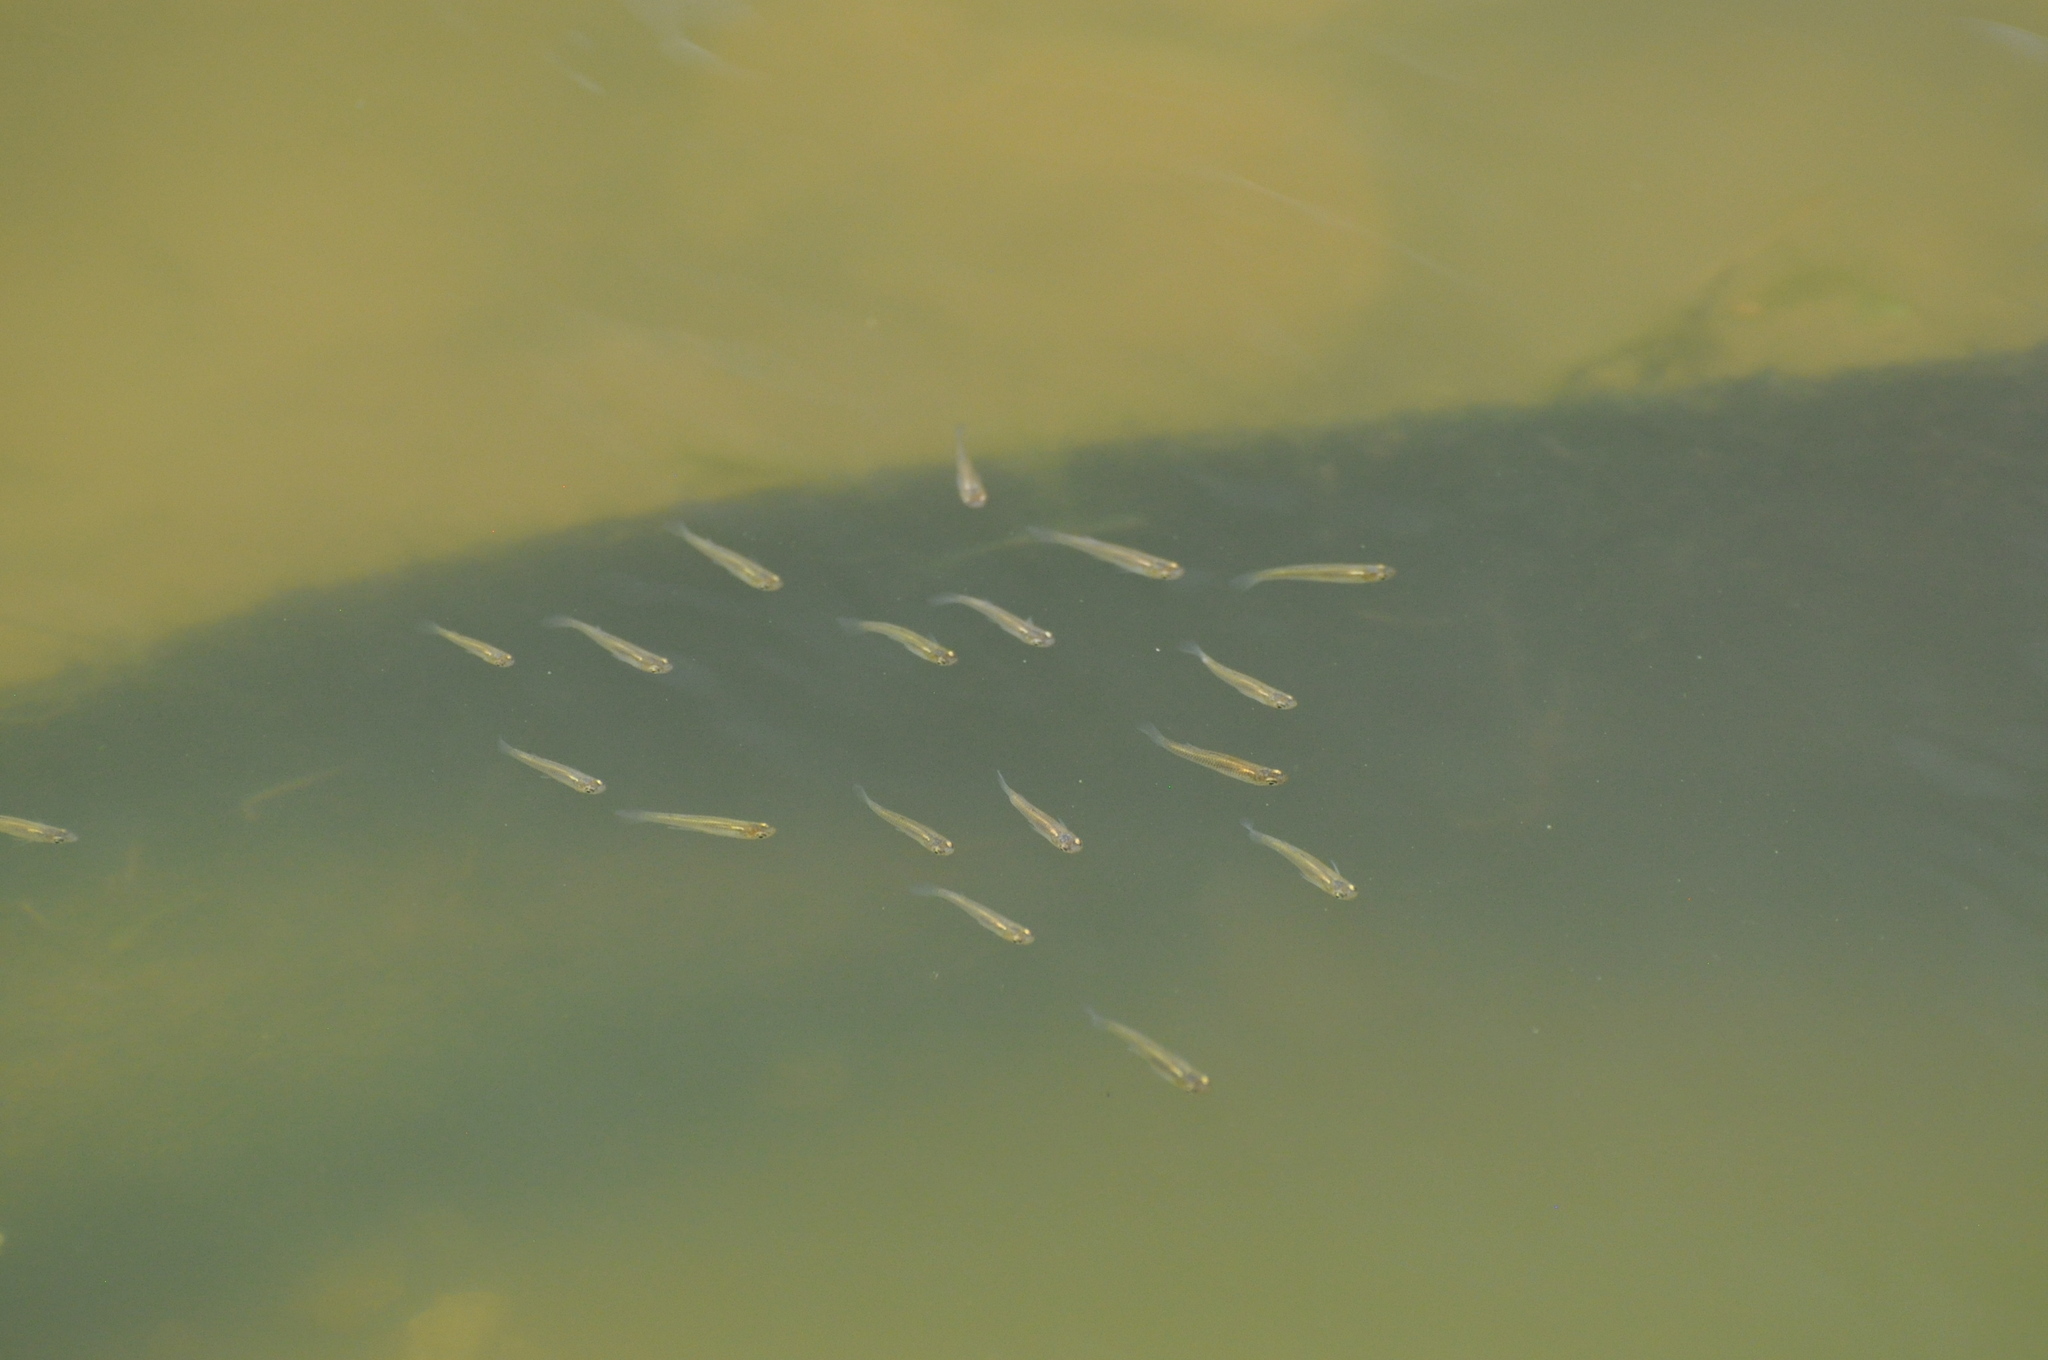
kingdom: Animalia
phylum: Chordata
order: Cyprinodontiformes
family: Poeciliidae
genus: Gambusia
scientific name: Gambusia affinis
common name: Mosquitofish
